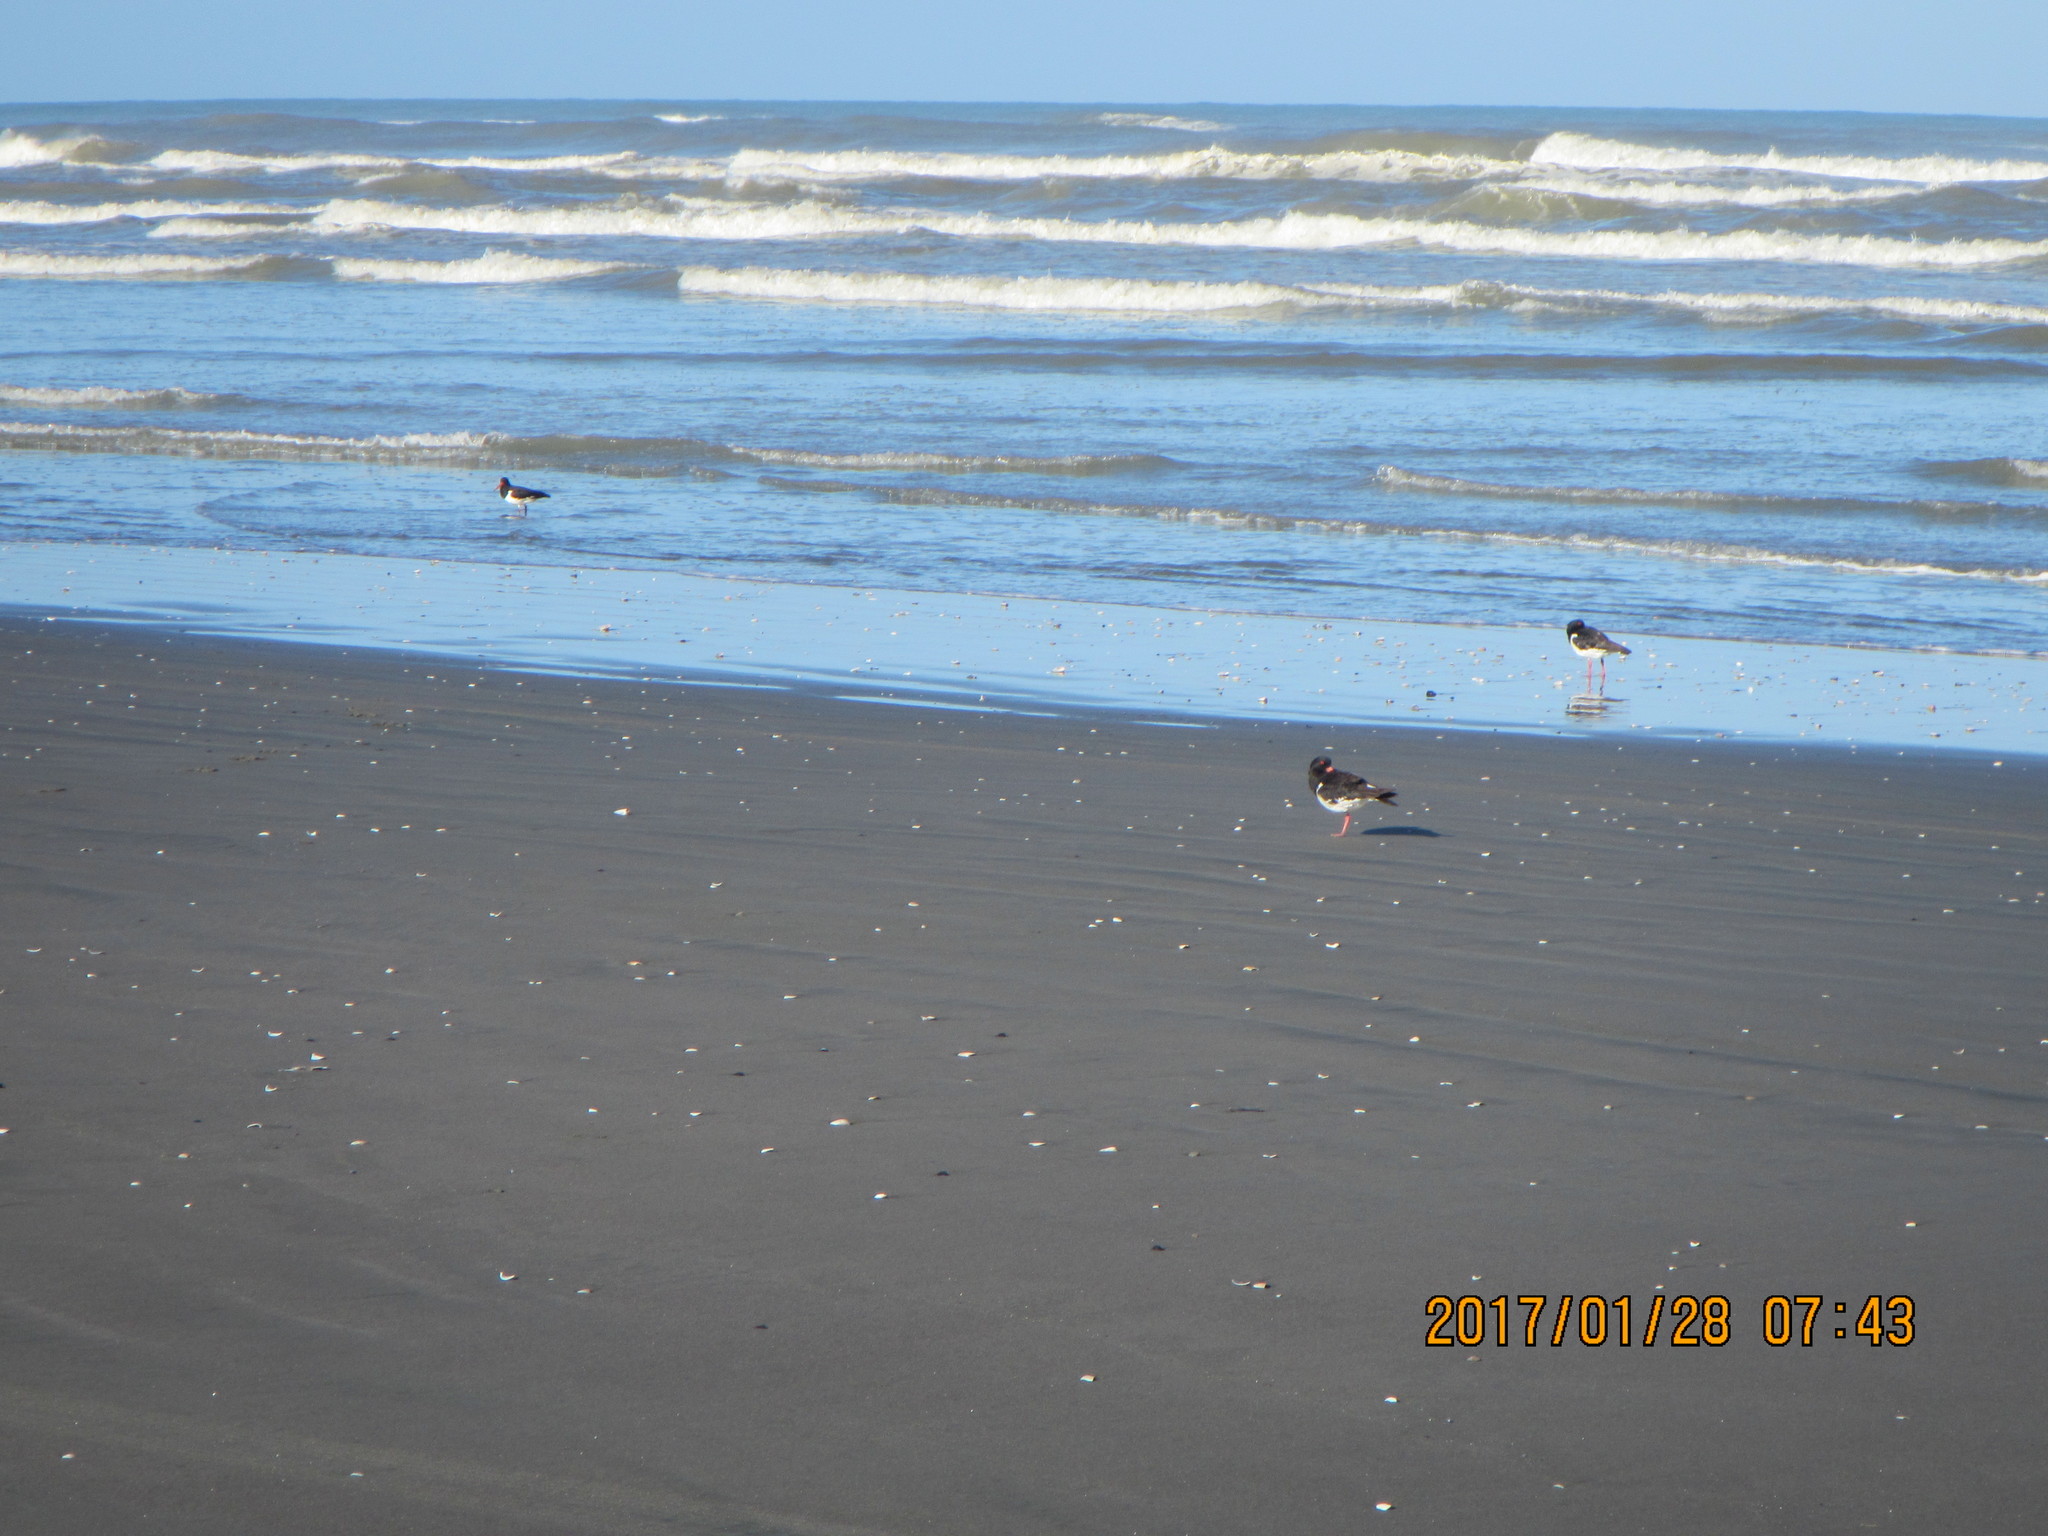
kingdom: Animalia
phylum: Chordata
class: Aves
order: Charadriiformes
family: Haematopodidae
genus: Haematopus
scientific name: Haematopus finschi
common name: South island oystercatcher
